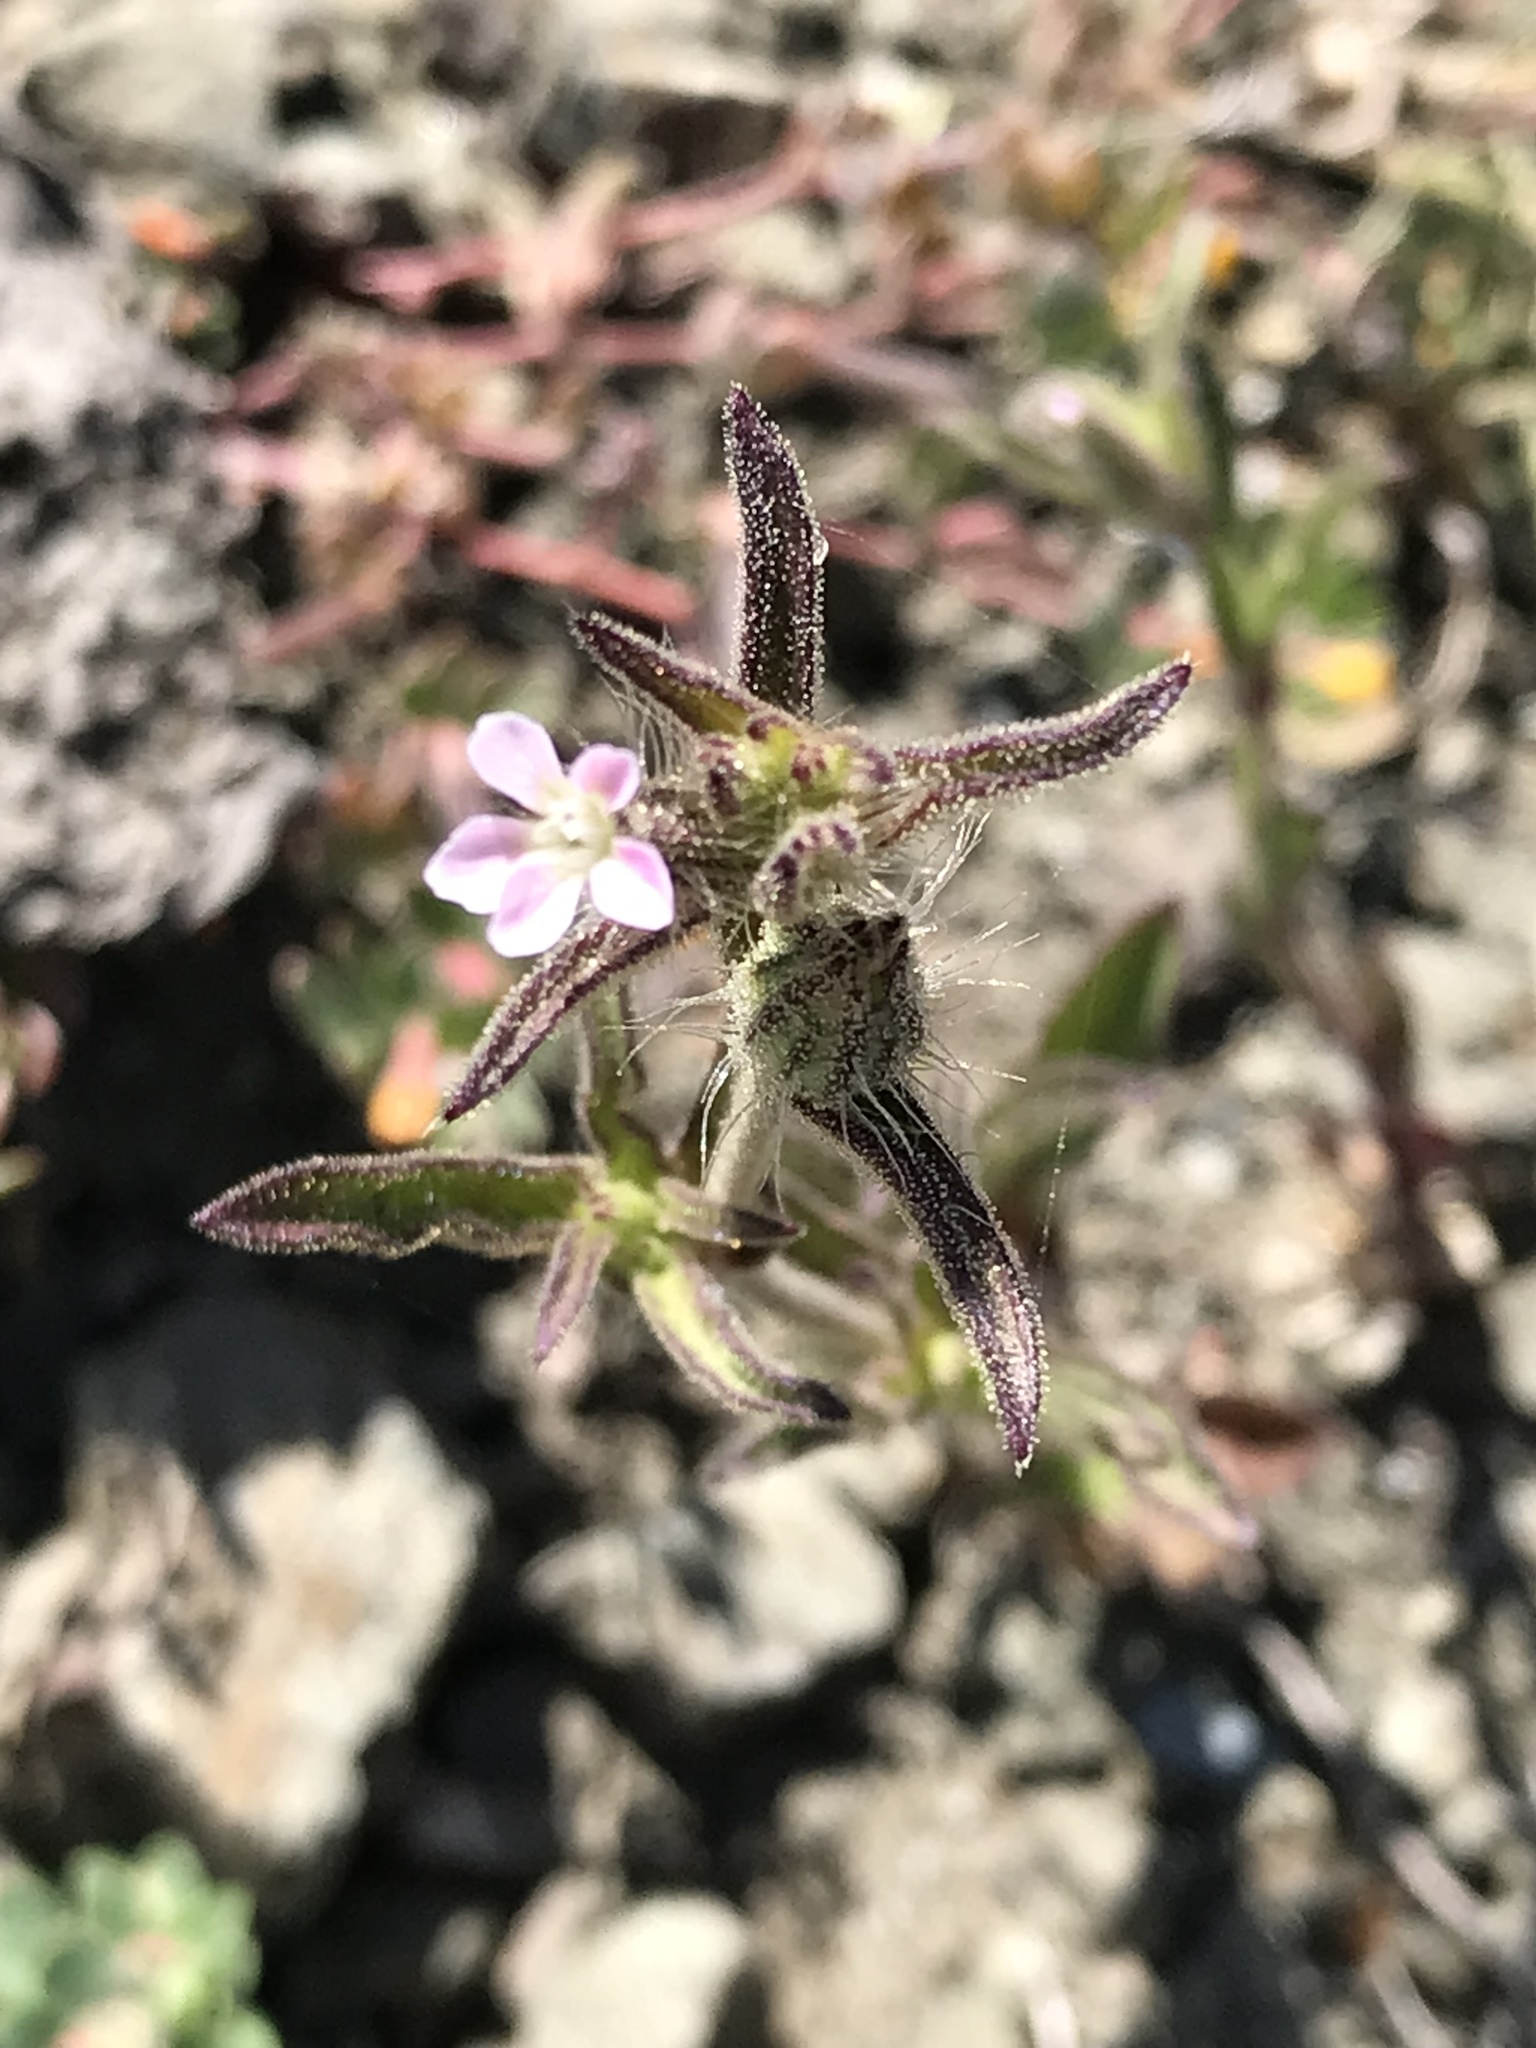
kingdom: Plantae
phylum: Tracheophyta
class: Magnoliopsida
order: Caryophyllales
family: Caryophyllaceae
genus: Silene
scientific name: Silene gallica
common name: Small-flowered catchfly
